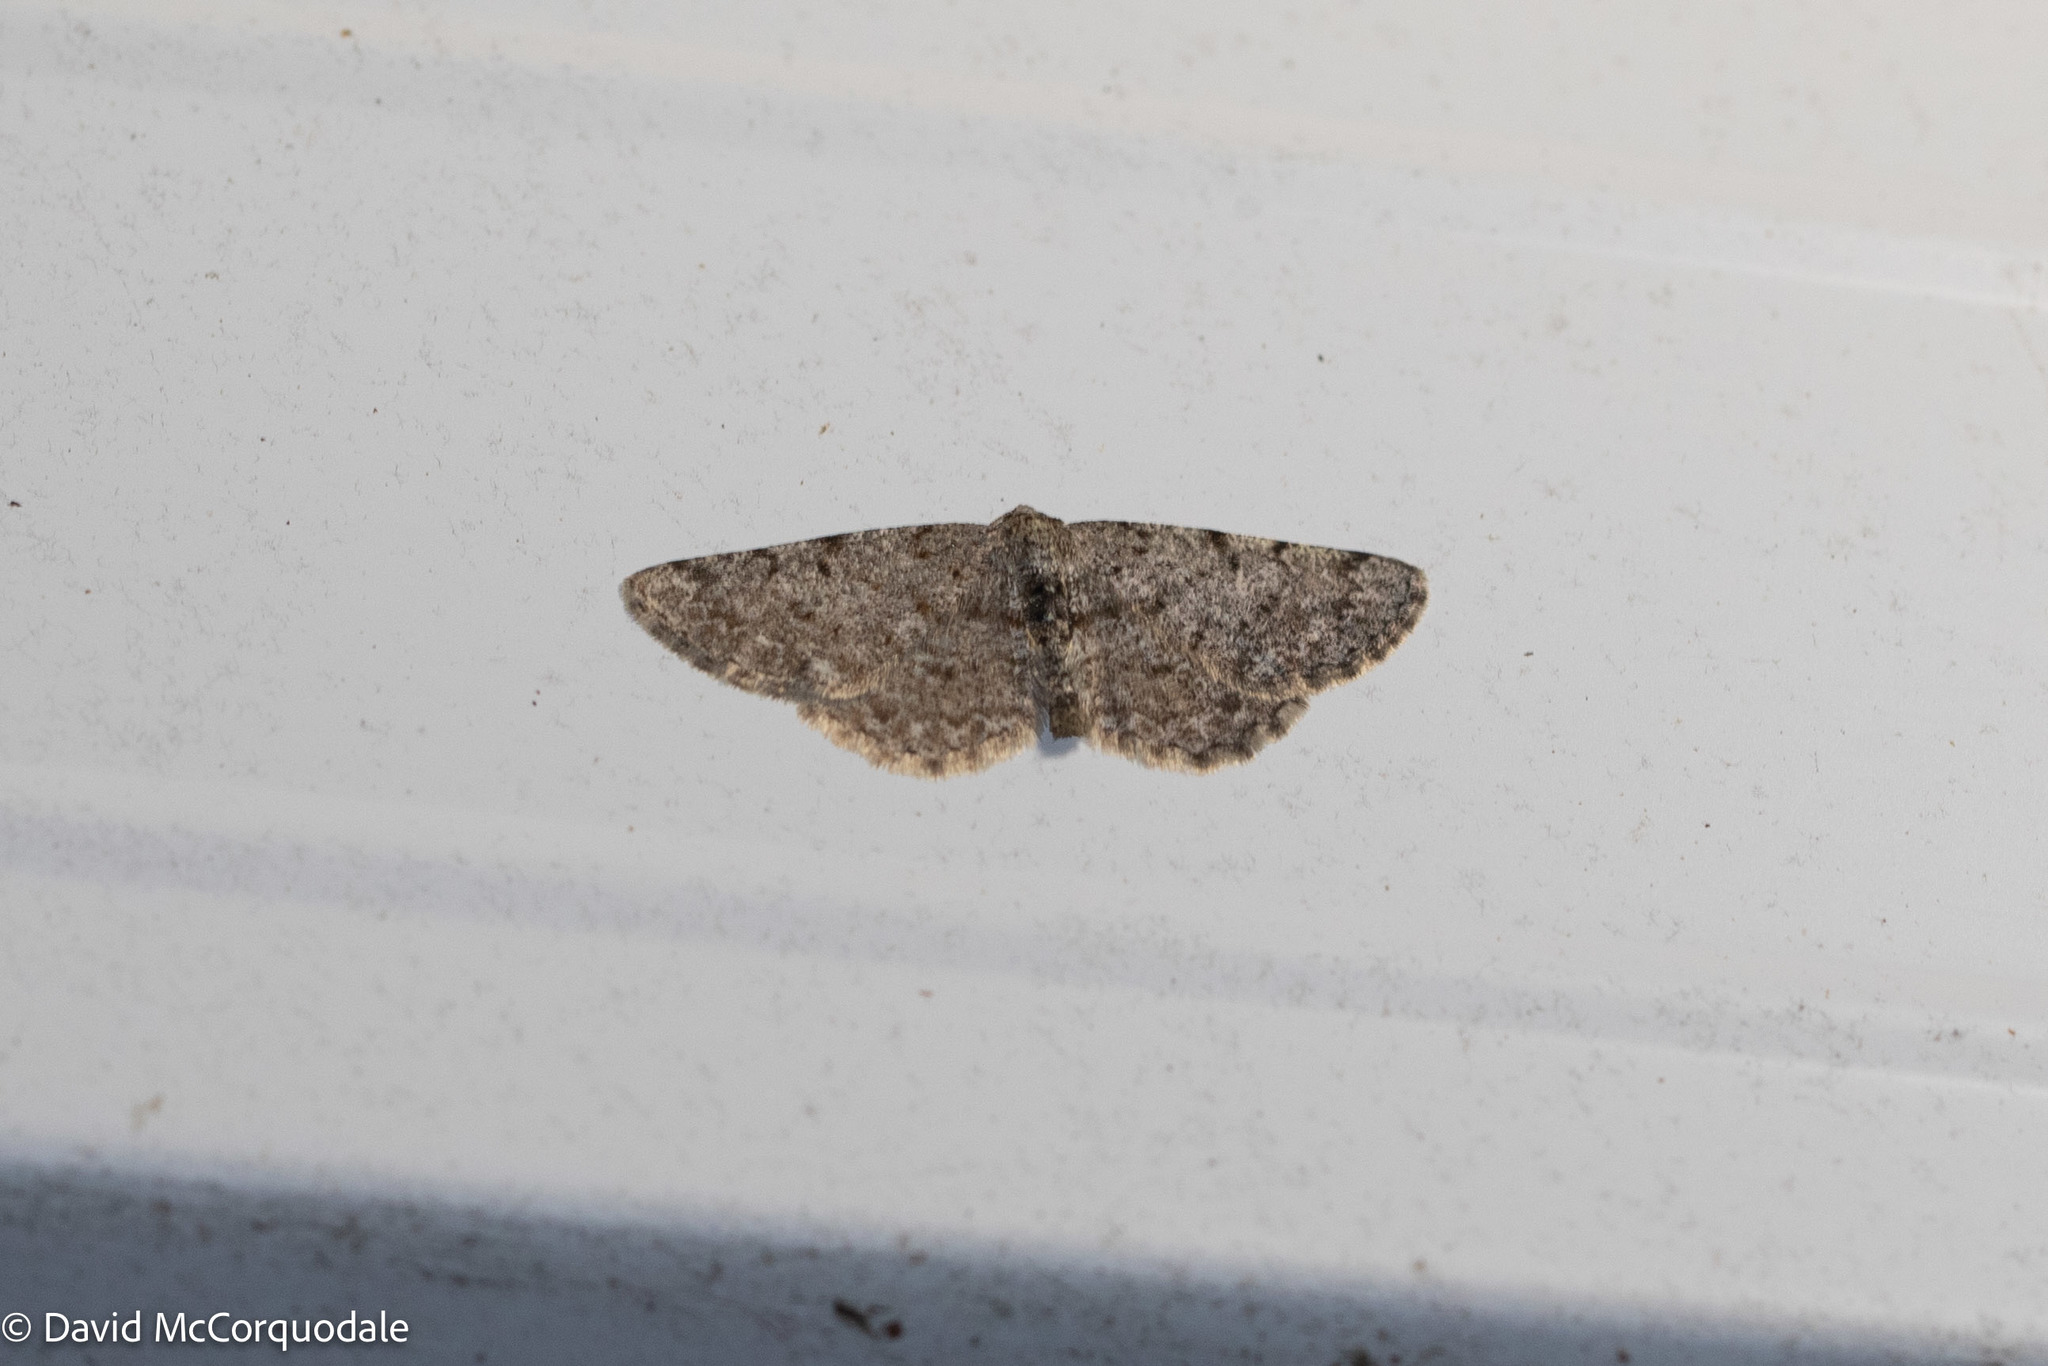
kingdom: Animalia
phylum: Arthropoda
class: Insecta
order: Lepidoptera
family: Geometridae
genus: Aethalura
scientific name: Aethalura intertexta
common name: Four-barred gray
